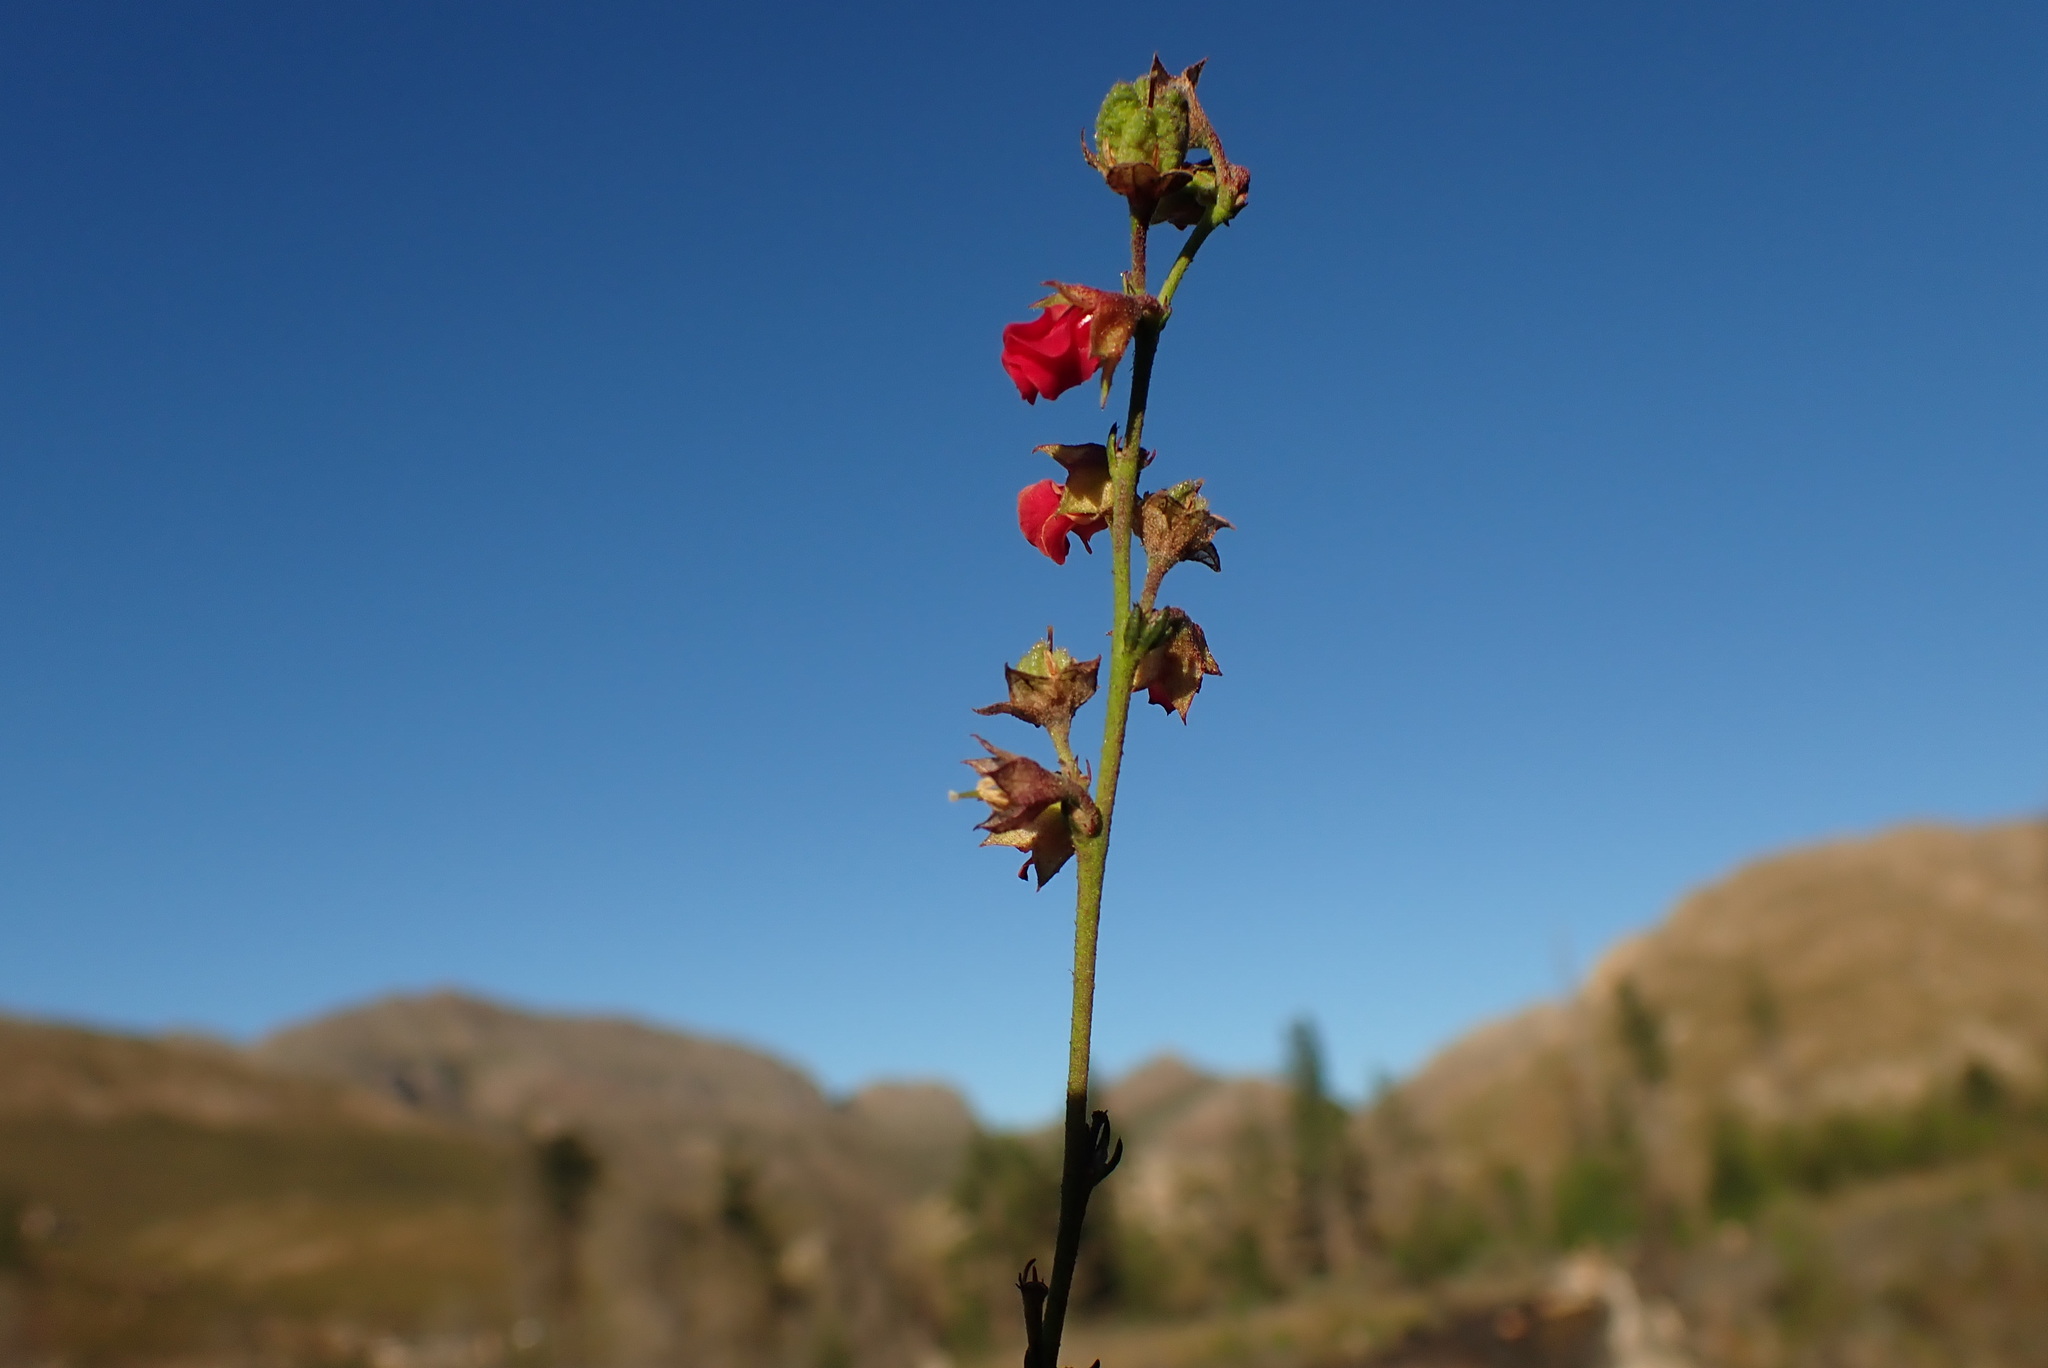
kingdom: Plantae
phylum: Tracheophyta
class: Magnoliopsida
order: Malvales
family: Malvaceae
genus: Hermannia
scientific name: Hermannia flammula
